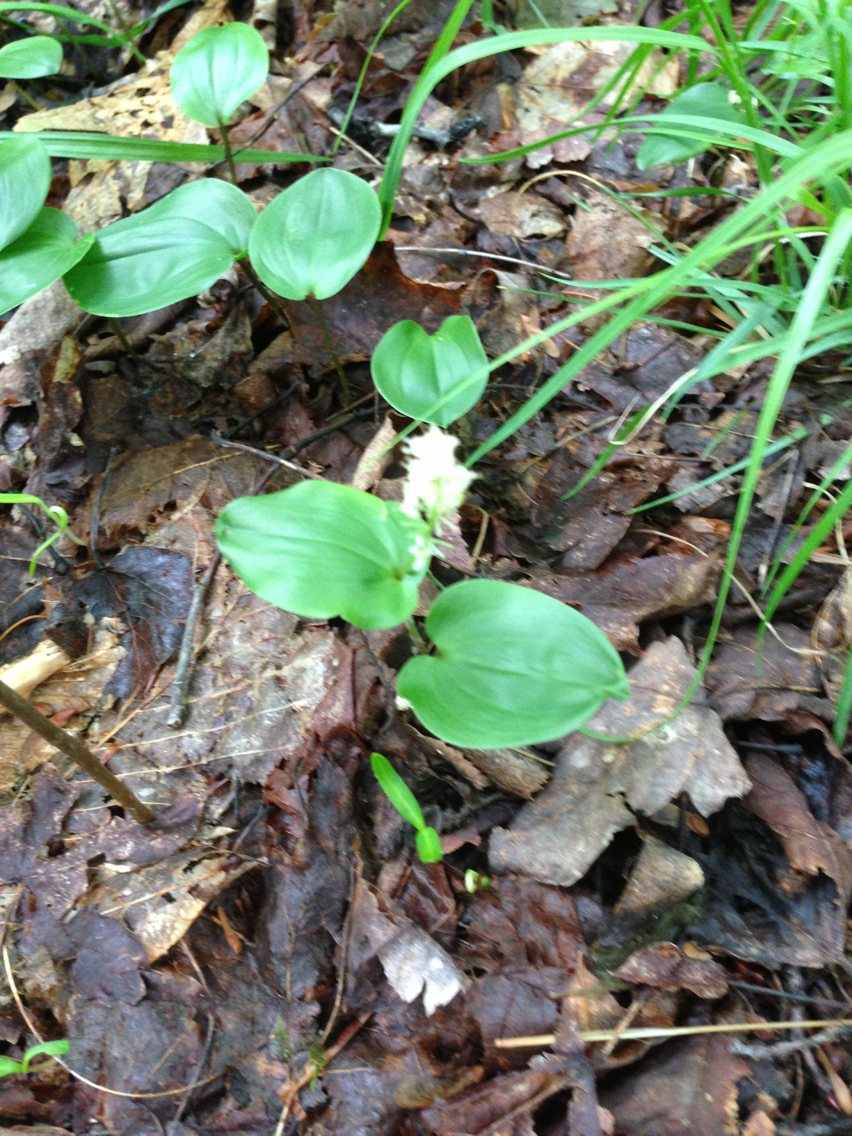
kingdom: Plantae
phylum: Tracheophyta
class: Liliopsida
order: Asparagales
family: Asparagaceae
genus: Maianthemum
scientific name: Maianthemum canadense
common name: False lily-of-the-valley
